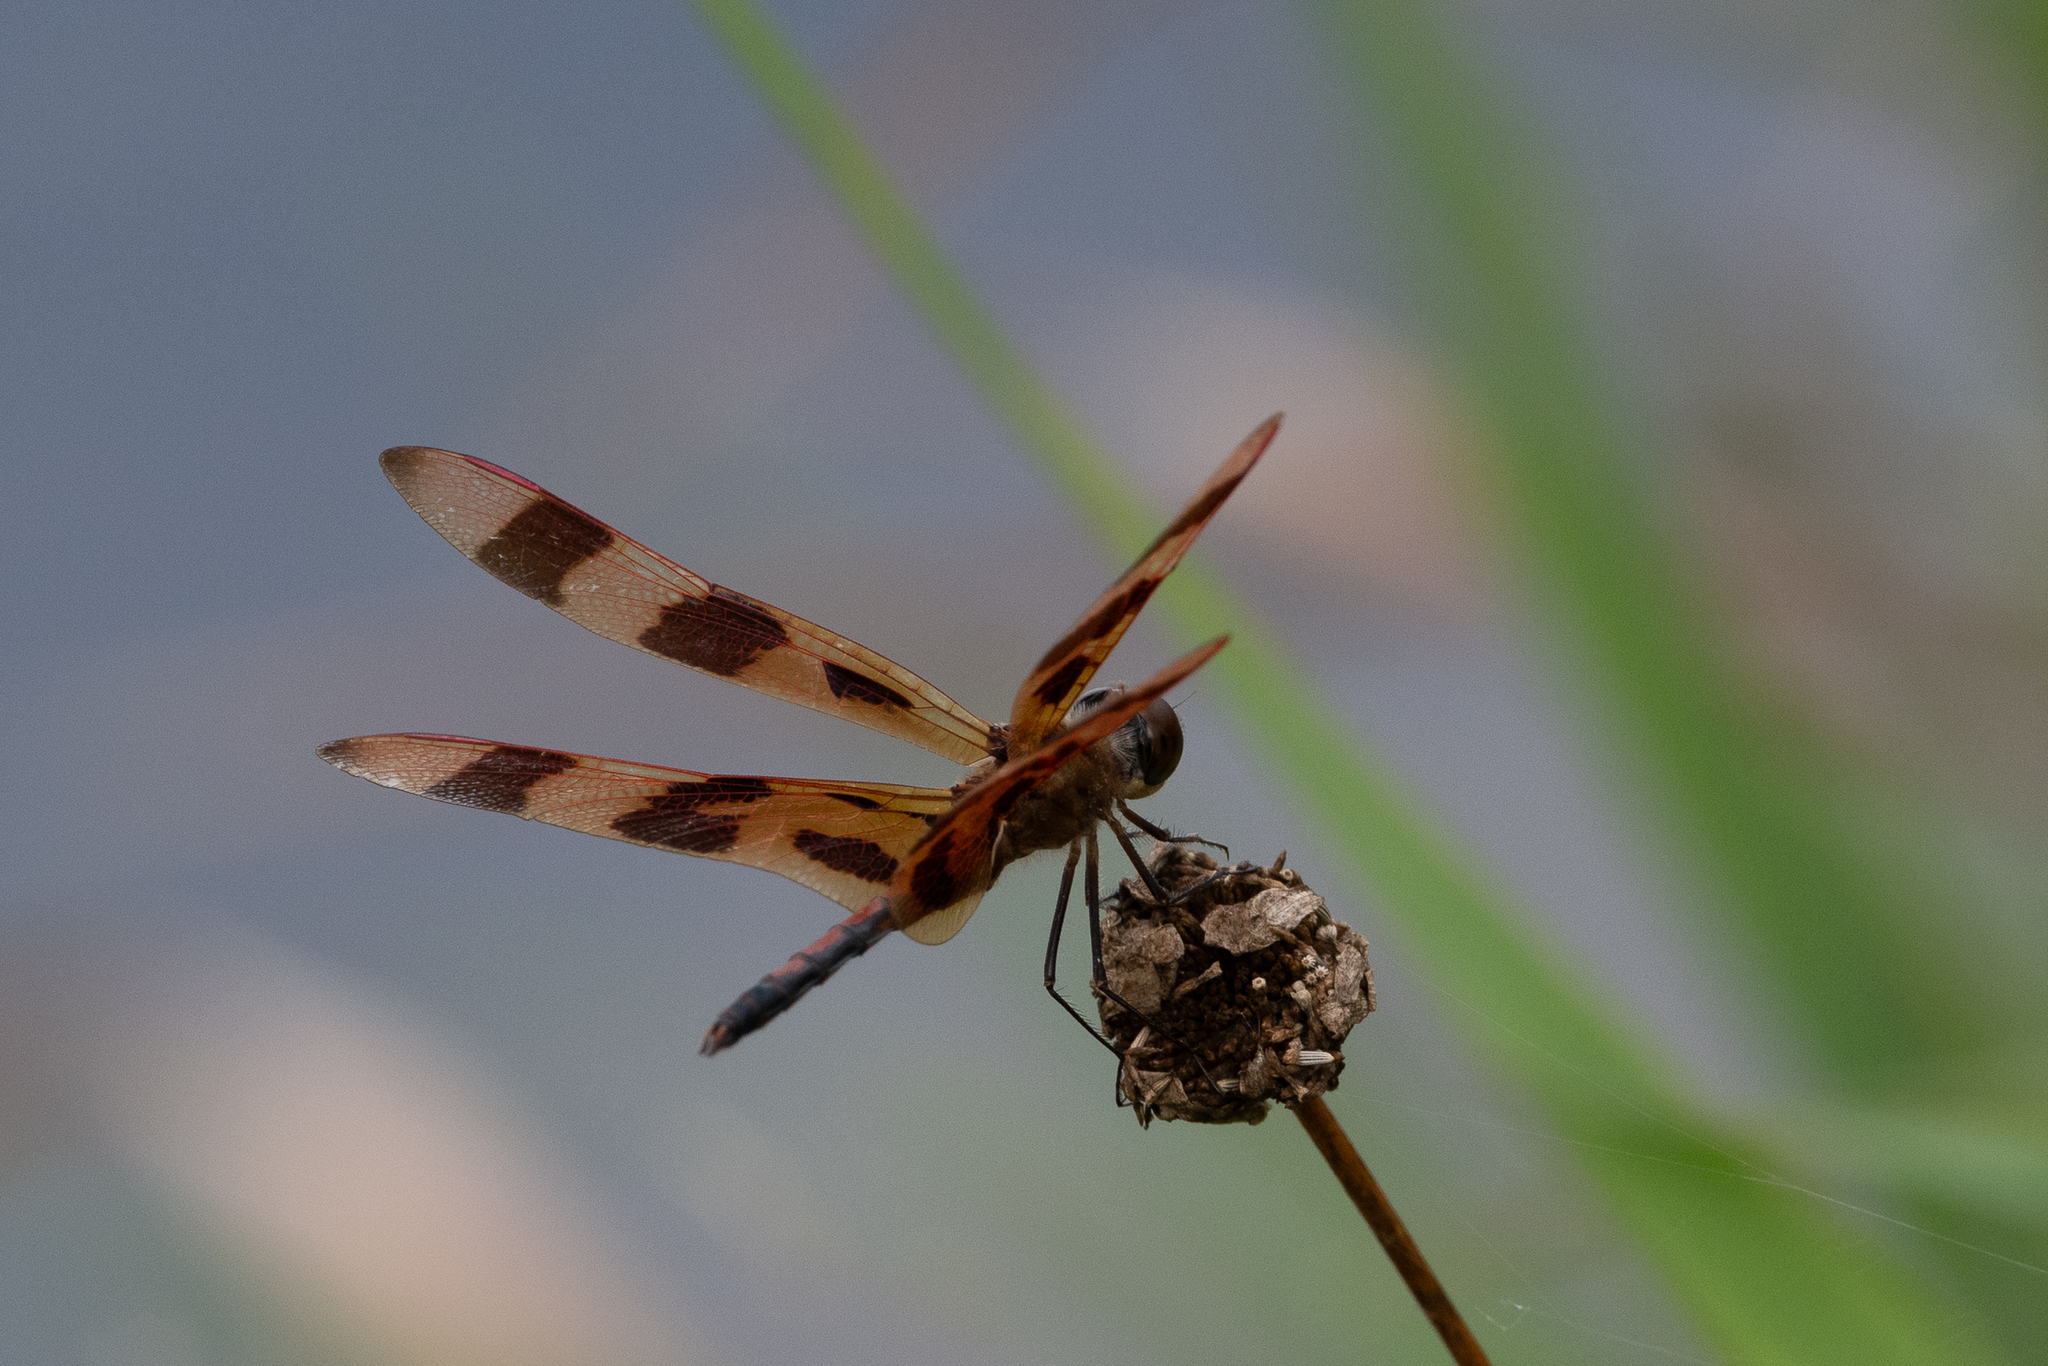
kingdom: Animalia
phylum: Arthropoda
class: Insecta
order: Odonata
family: Libellulidae
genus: Celithemis
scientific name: Celithemis eponina
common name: Halloween pennant
